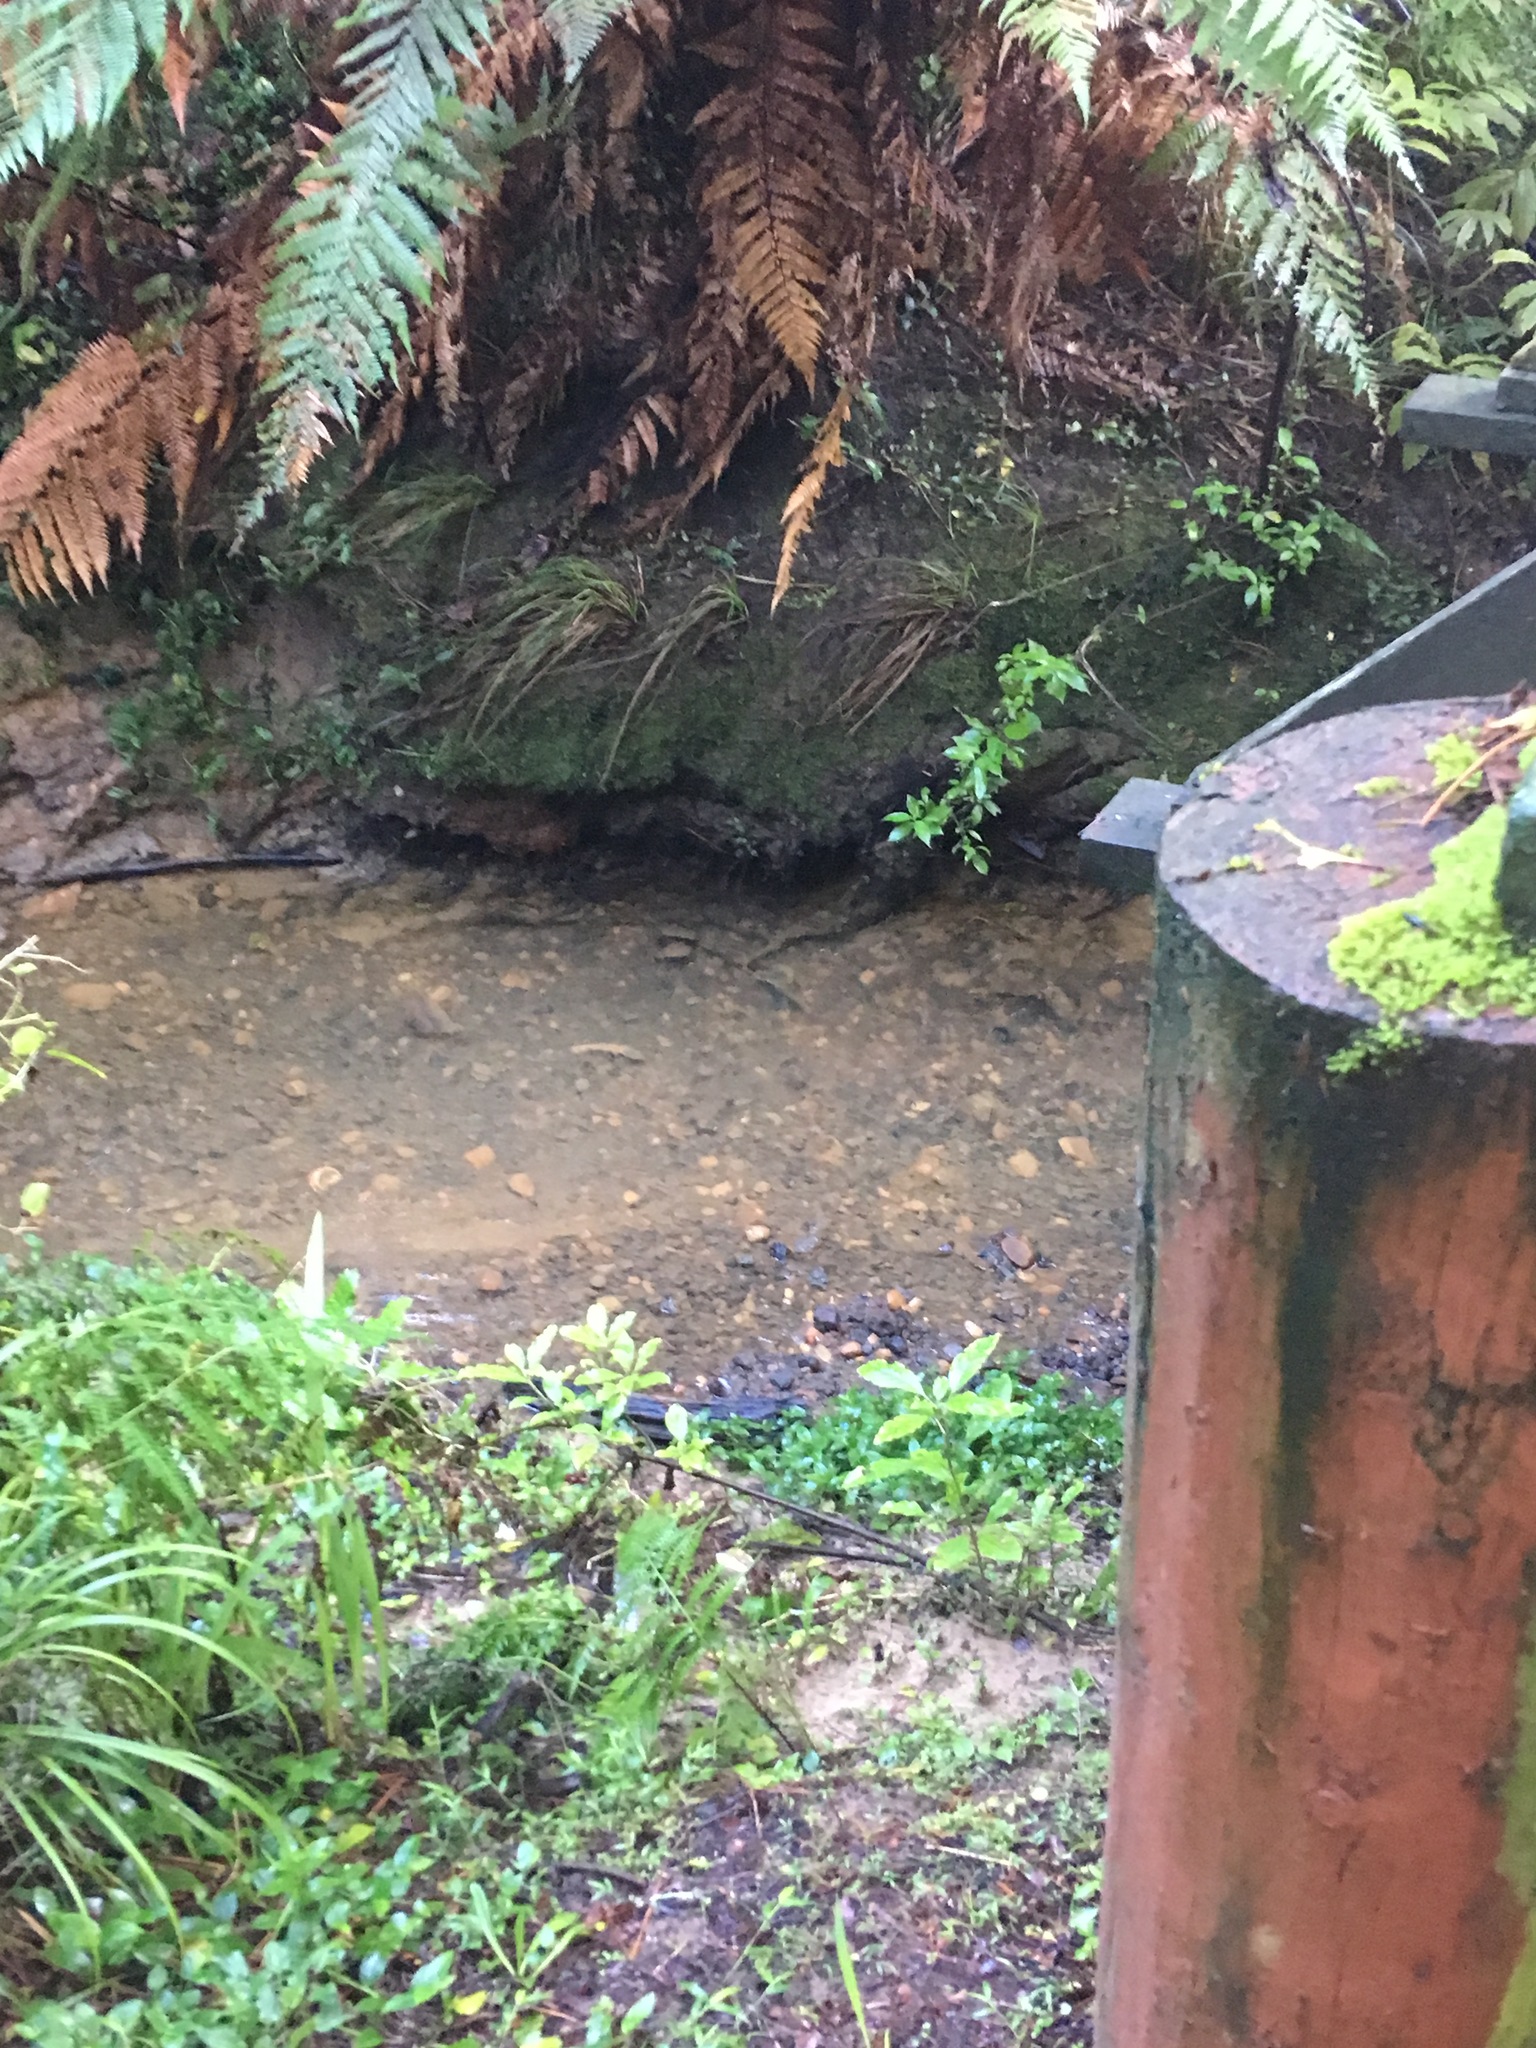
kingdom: Plantae
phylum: Tracheophyta
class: Magnoliopsida
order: Gentianales
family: Loganiaceae
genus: Geniostoma
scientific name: Geniostoma ligustrifolium
